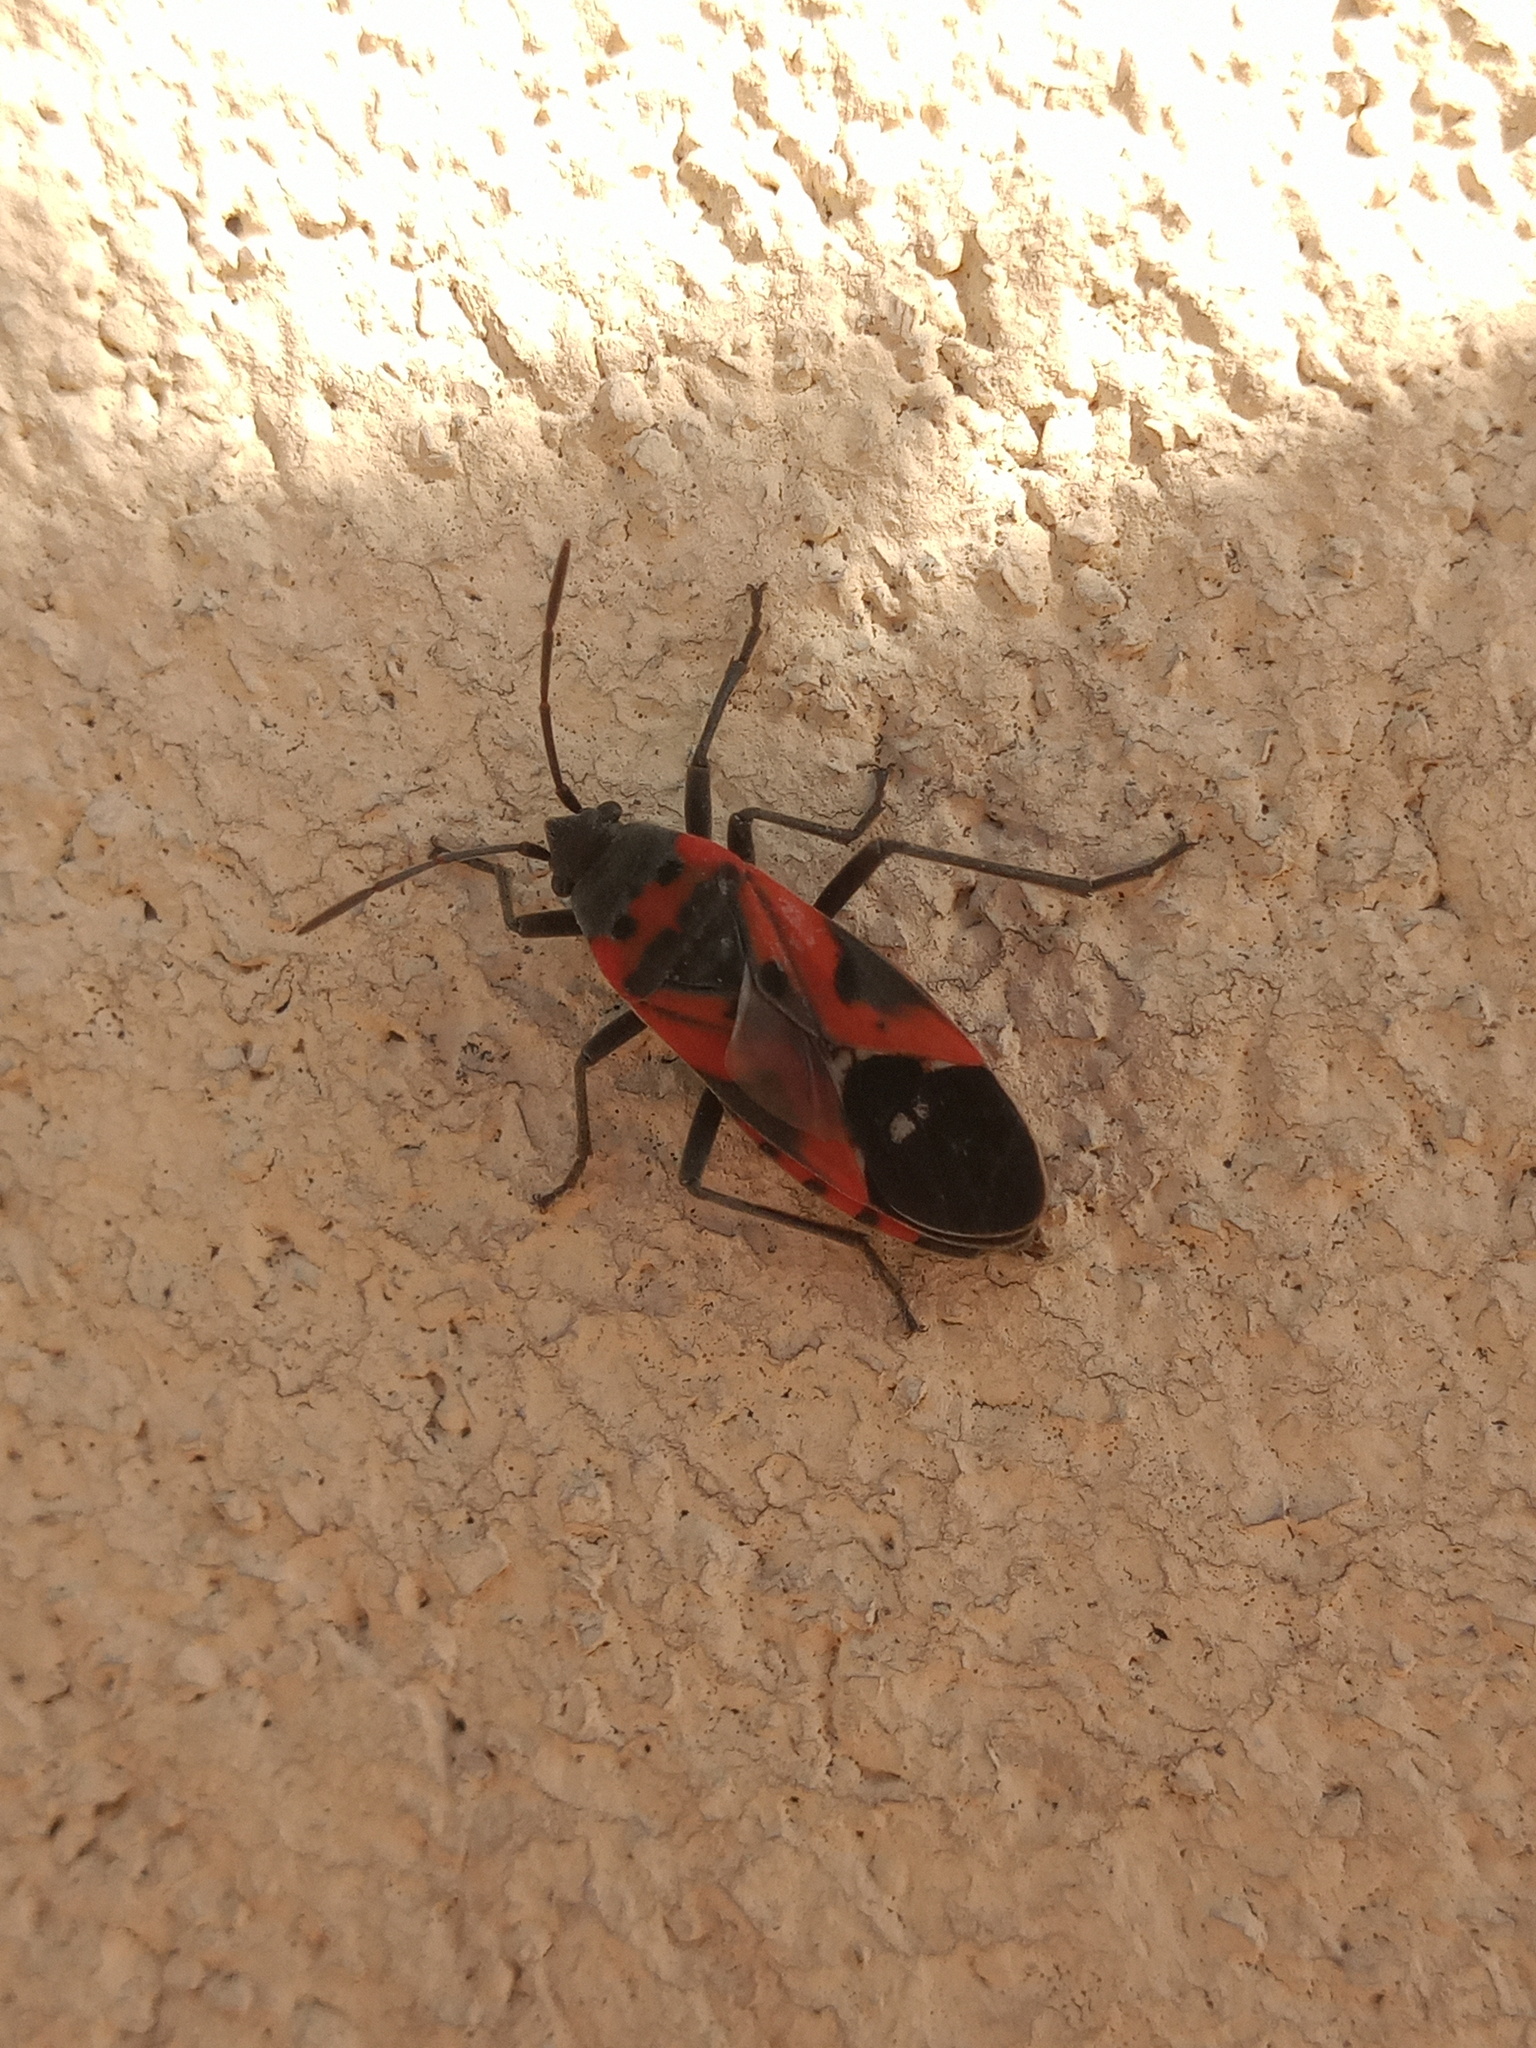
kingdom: Animalia
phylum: Arthropoda
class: Insecta
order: Hemiptera
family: Lygaeidae
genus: Lygaeus
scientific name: Lygaeus reclivatus
